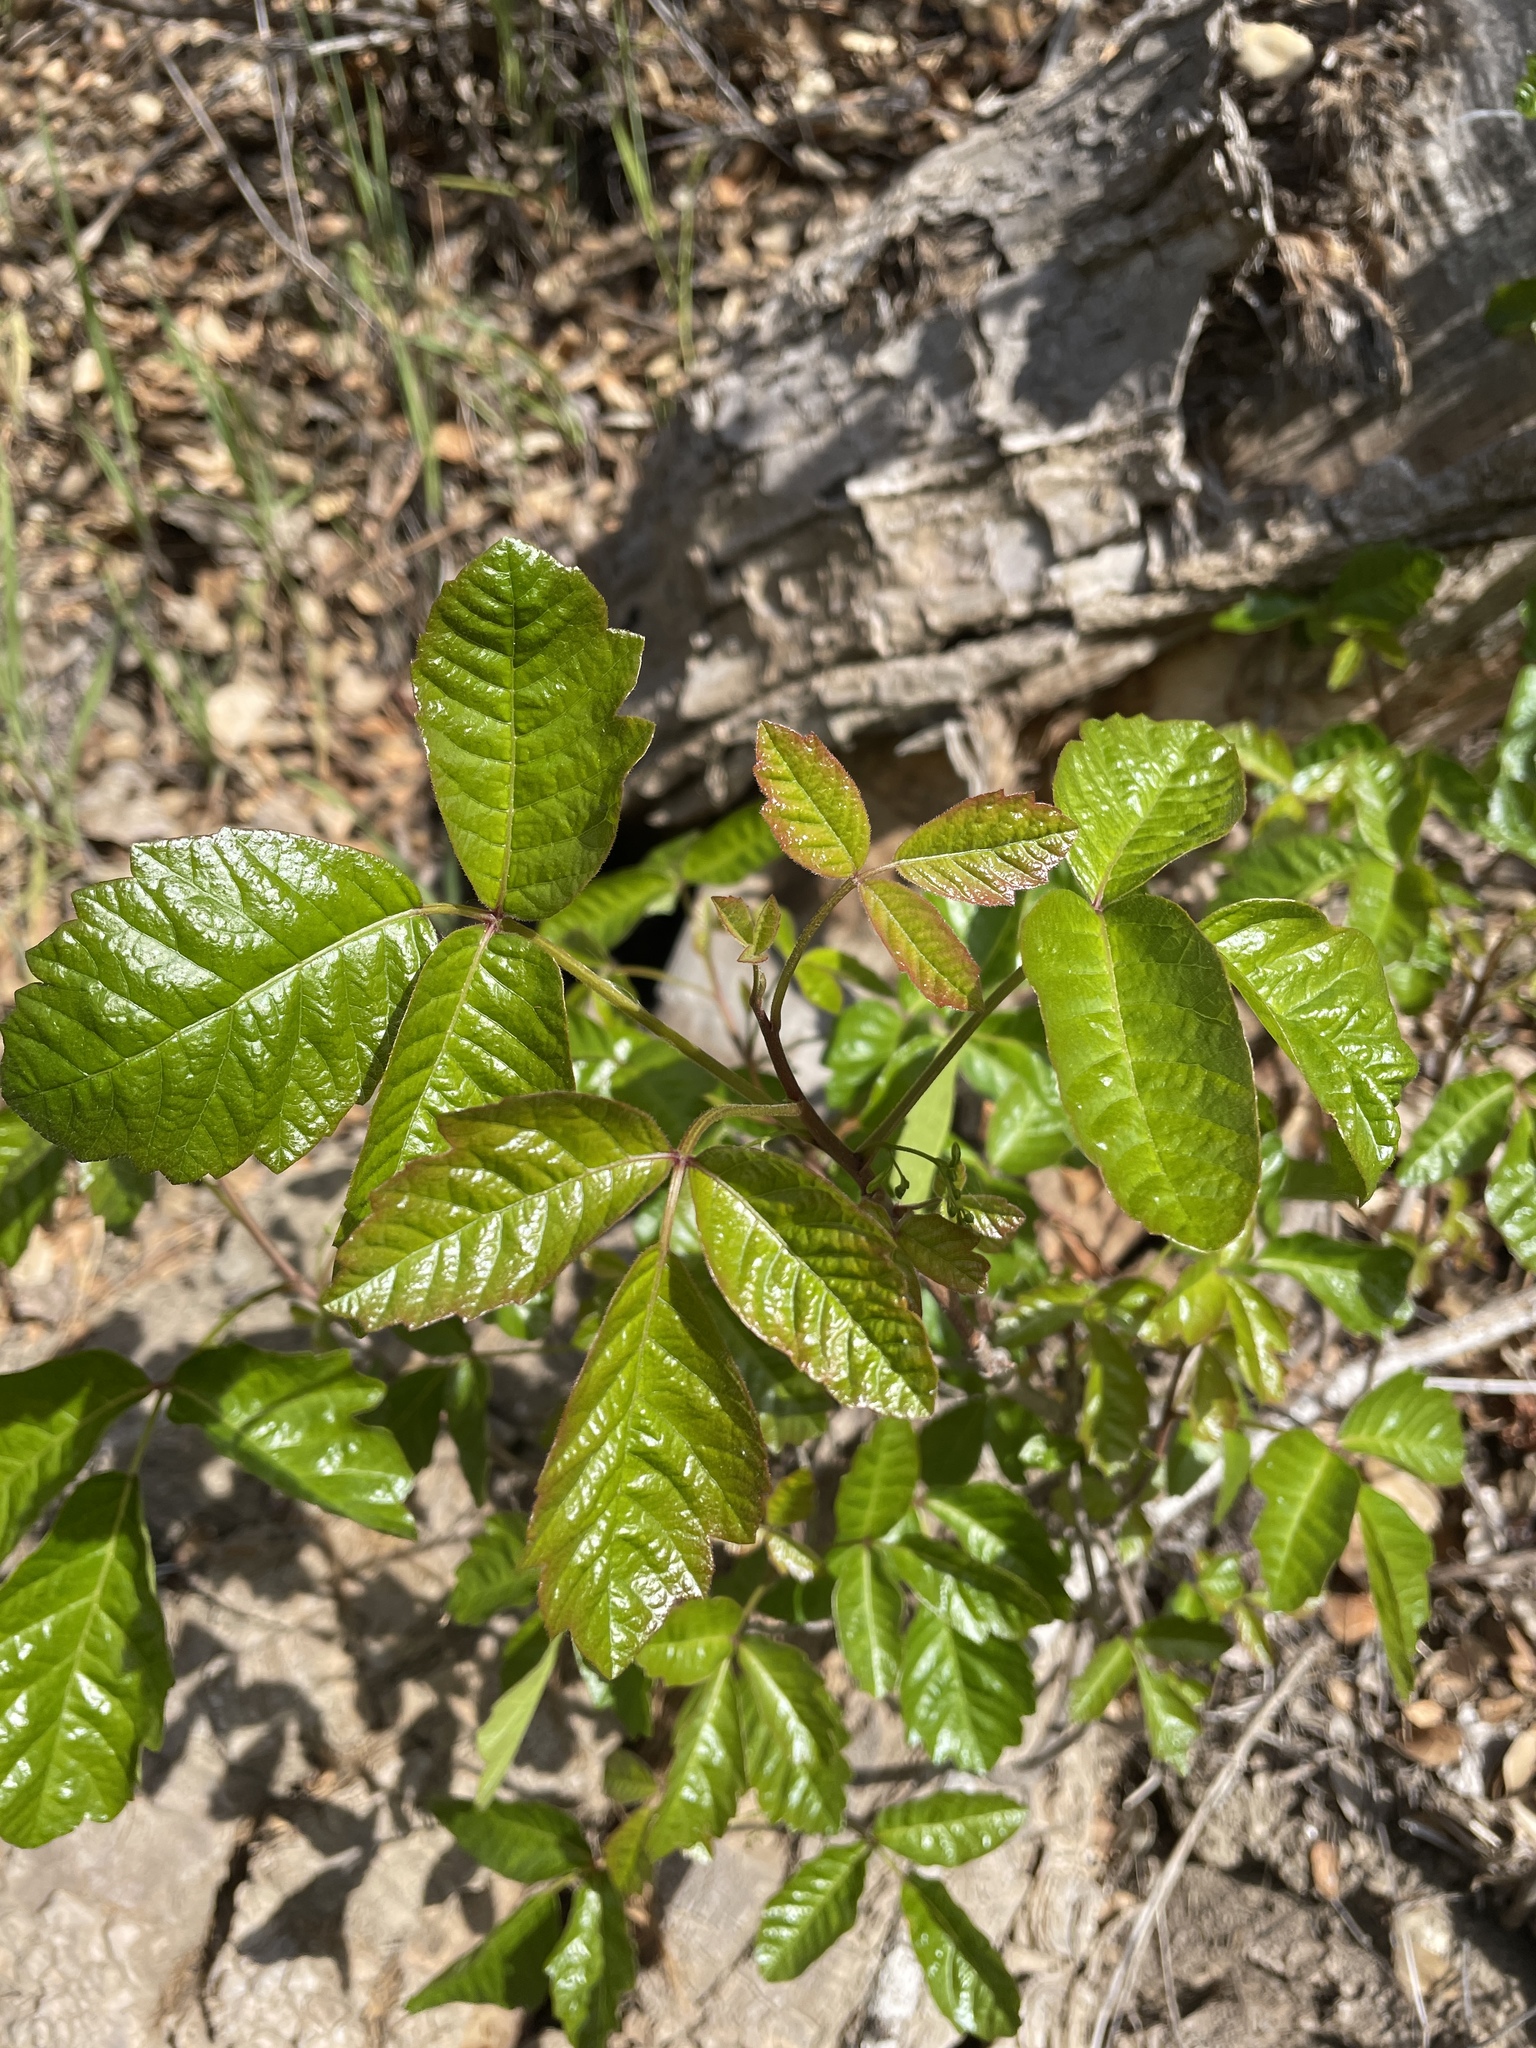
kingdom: Plantae
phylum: Tracheophyta
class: Magnoliopsida
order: Sapindales
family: Anacardiaceae
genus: Toxicodendron
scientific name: Toxicodendron diversilobum
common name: Pacific poison-oak
